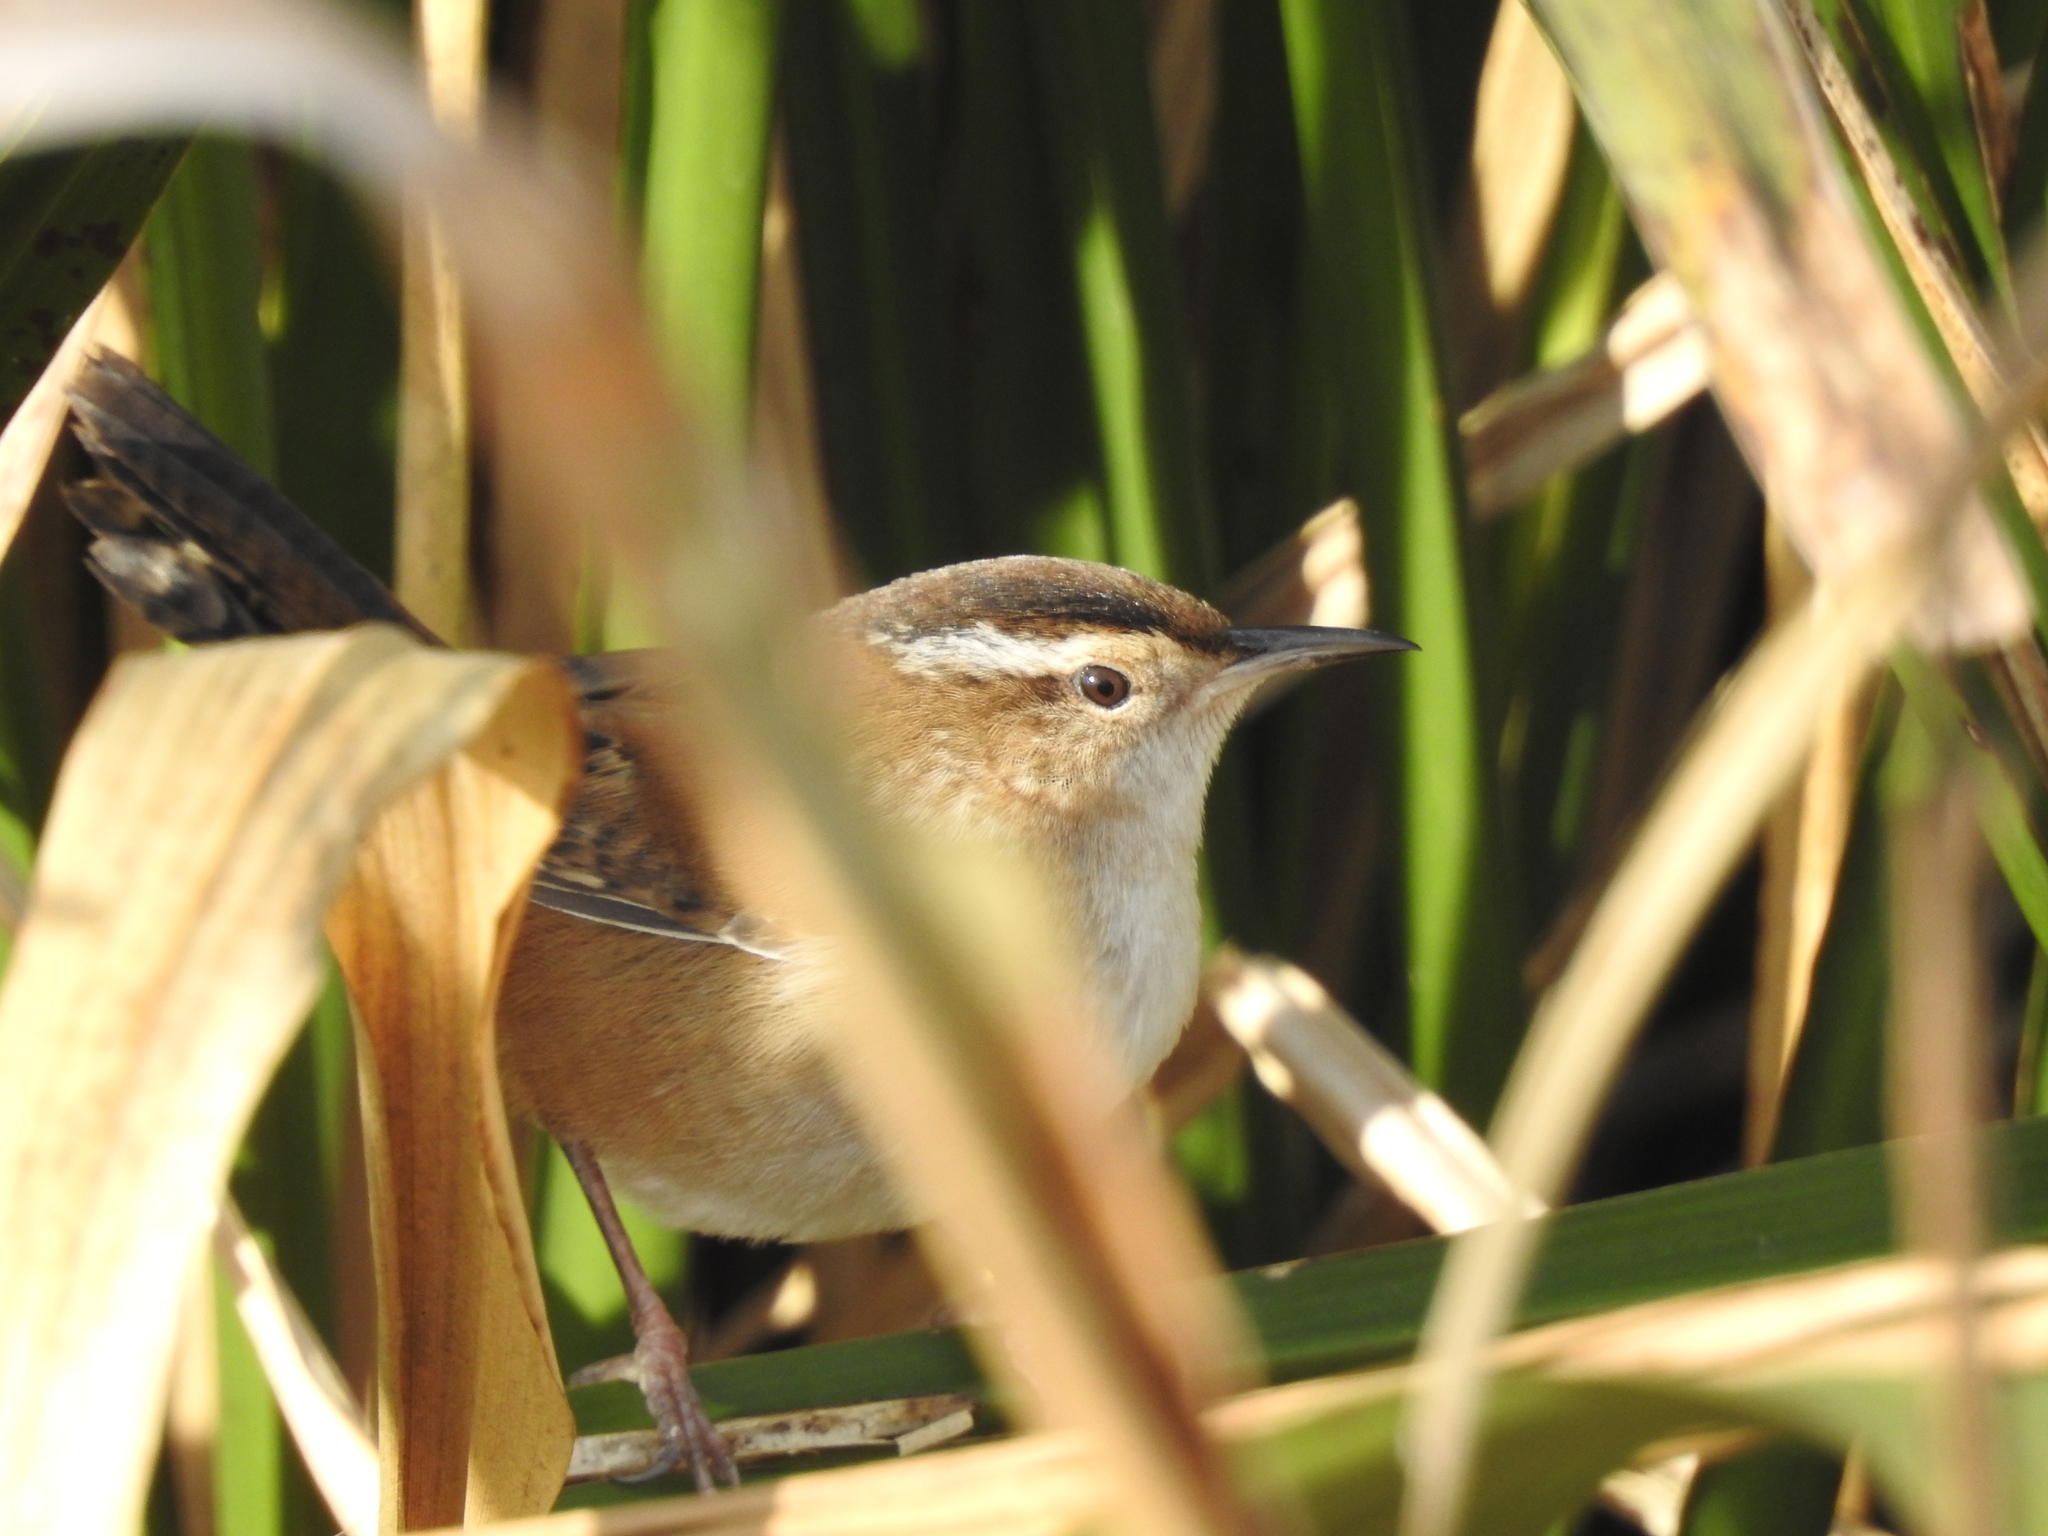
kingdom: Animalia
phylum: Chordata
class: Aves
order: Passeriformes
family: Troglodytidae
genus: Cistothorus
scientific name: Cistothorus palustris
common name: Marsh wren
